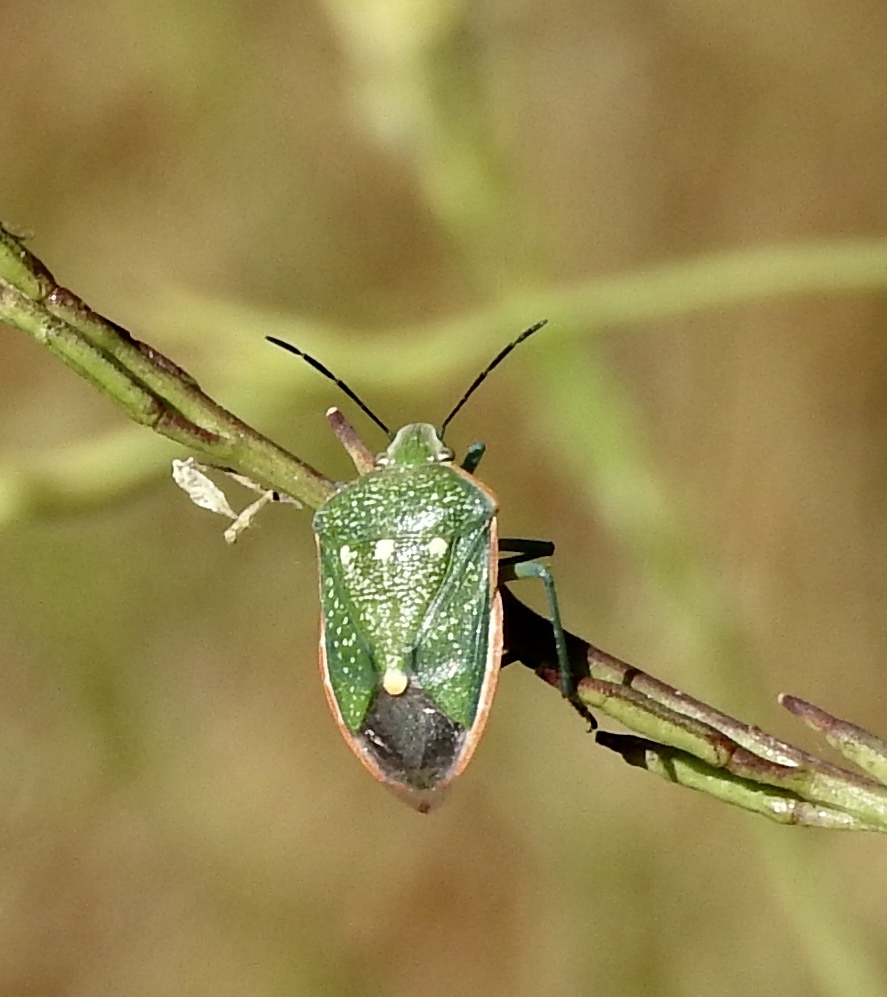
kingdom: Animalia
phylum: Arthropoda
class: Insecta
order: Hemiptera
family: Pentatomidae
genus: Chlorochroa
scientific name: Chlorochroa sayi
